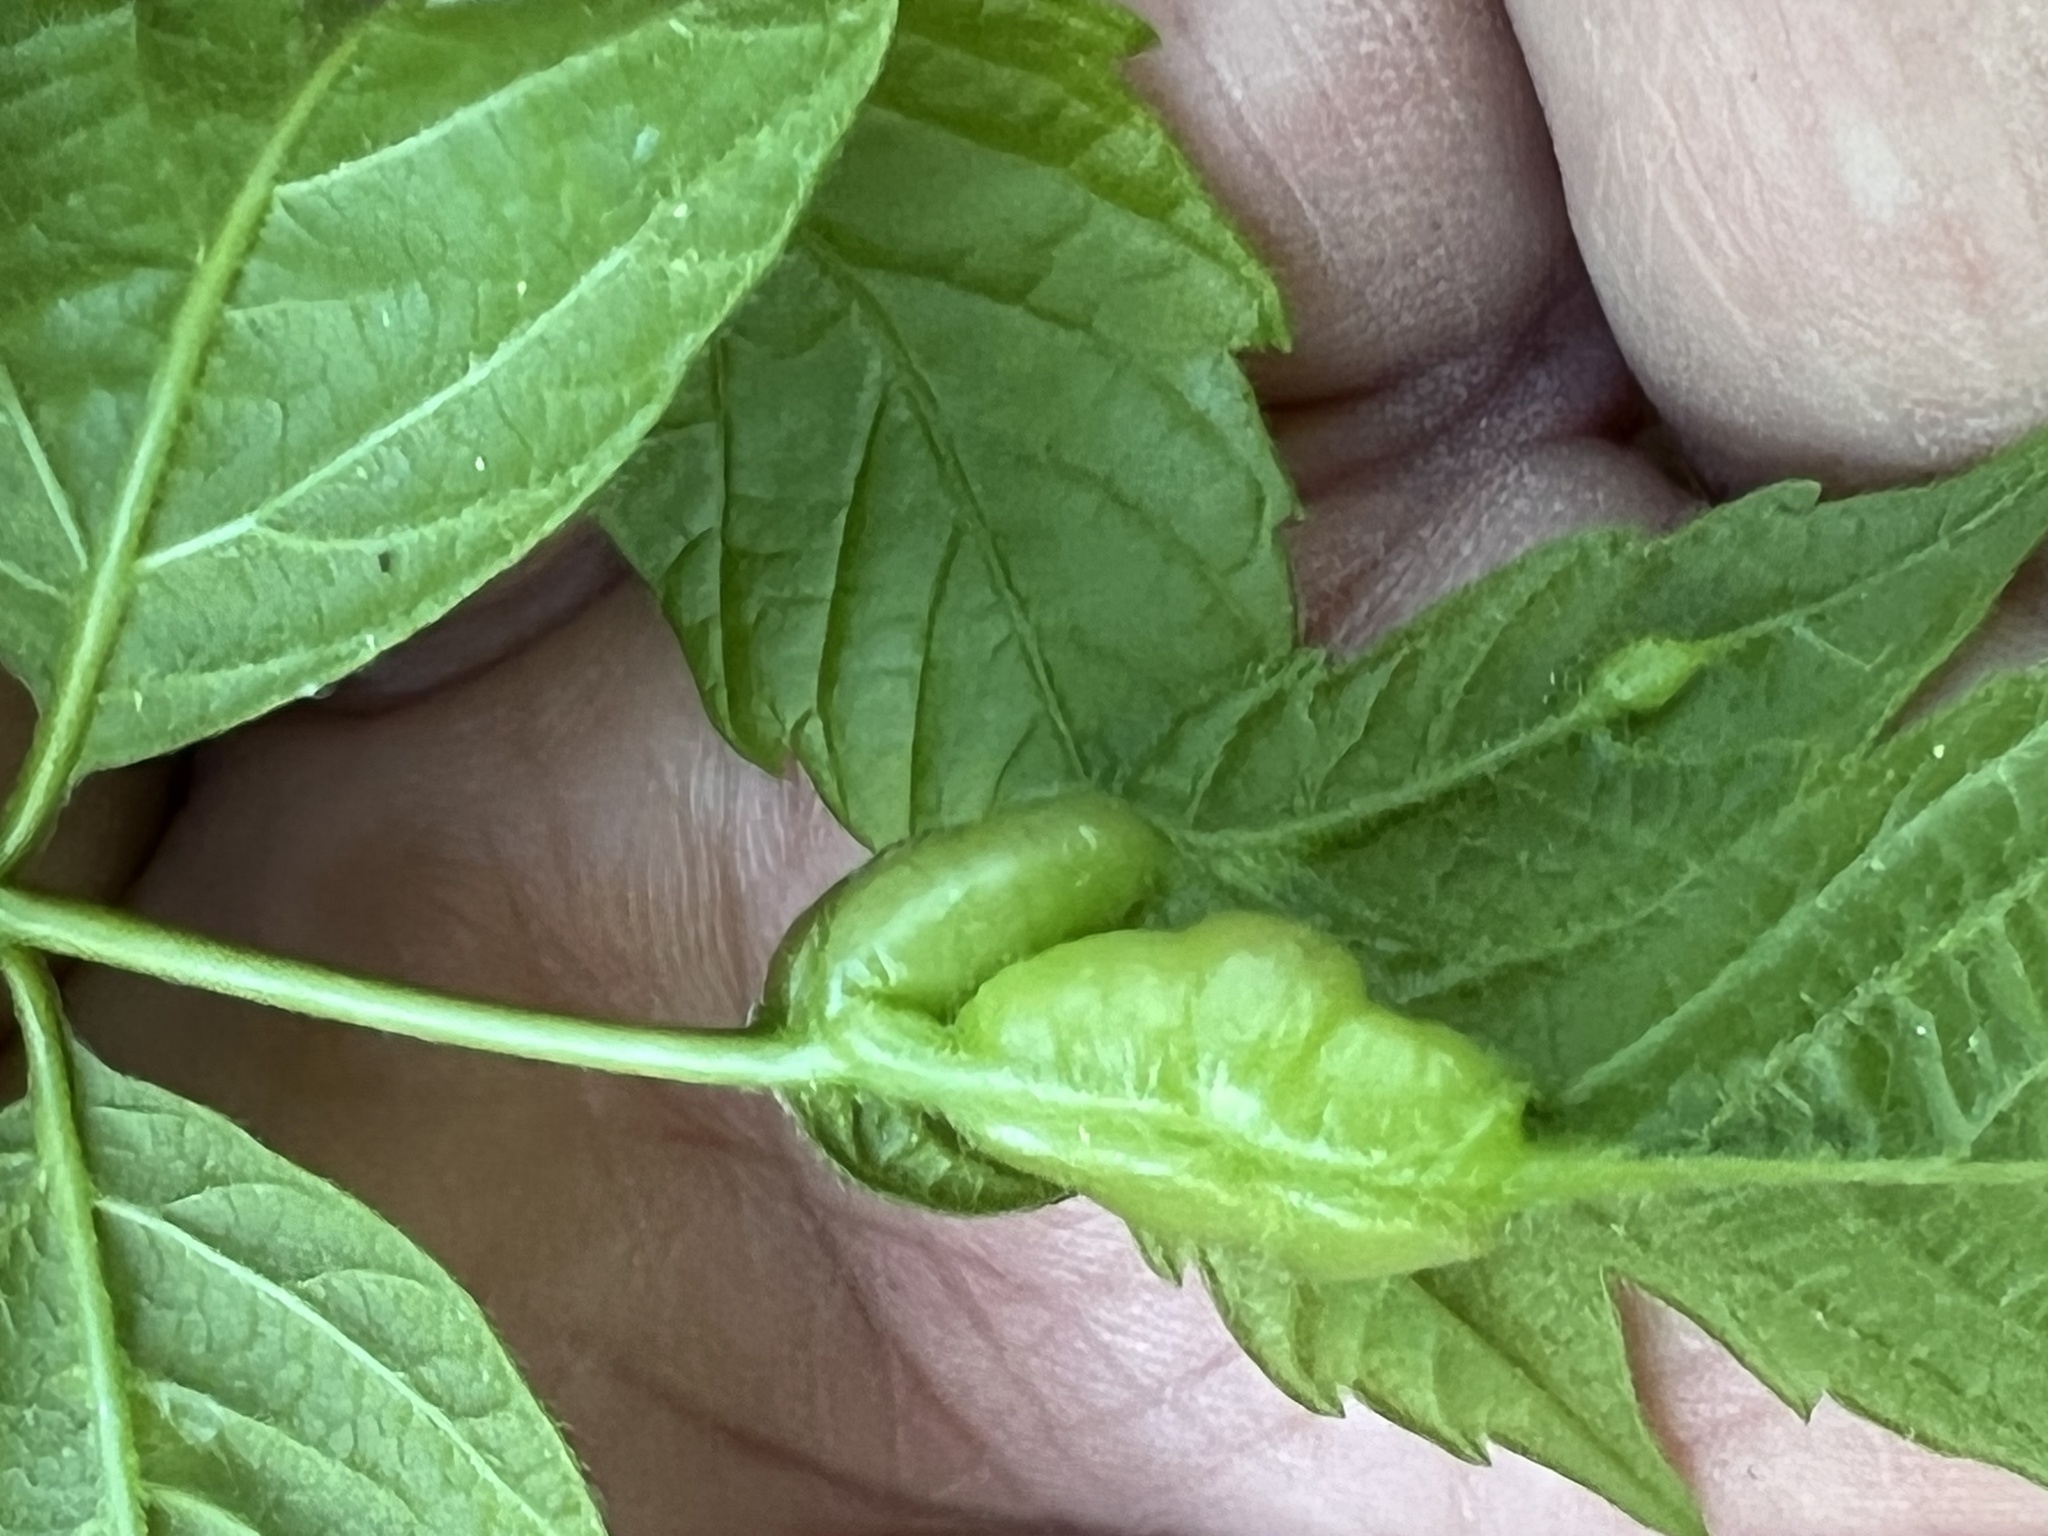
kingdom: Animalia
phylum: Arthropoda
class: Insecta
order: Diptera
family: Cecidomyiidae
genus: Contarinia
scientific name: Contarinia negundinis
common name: Boxelder budgall midge
